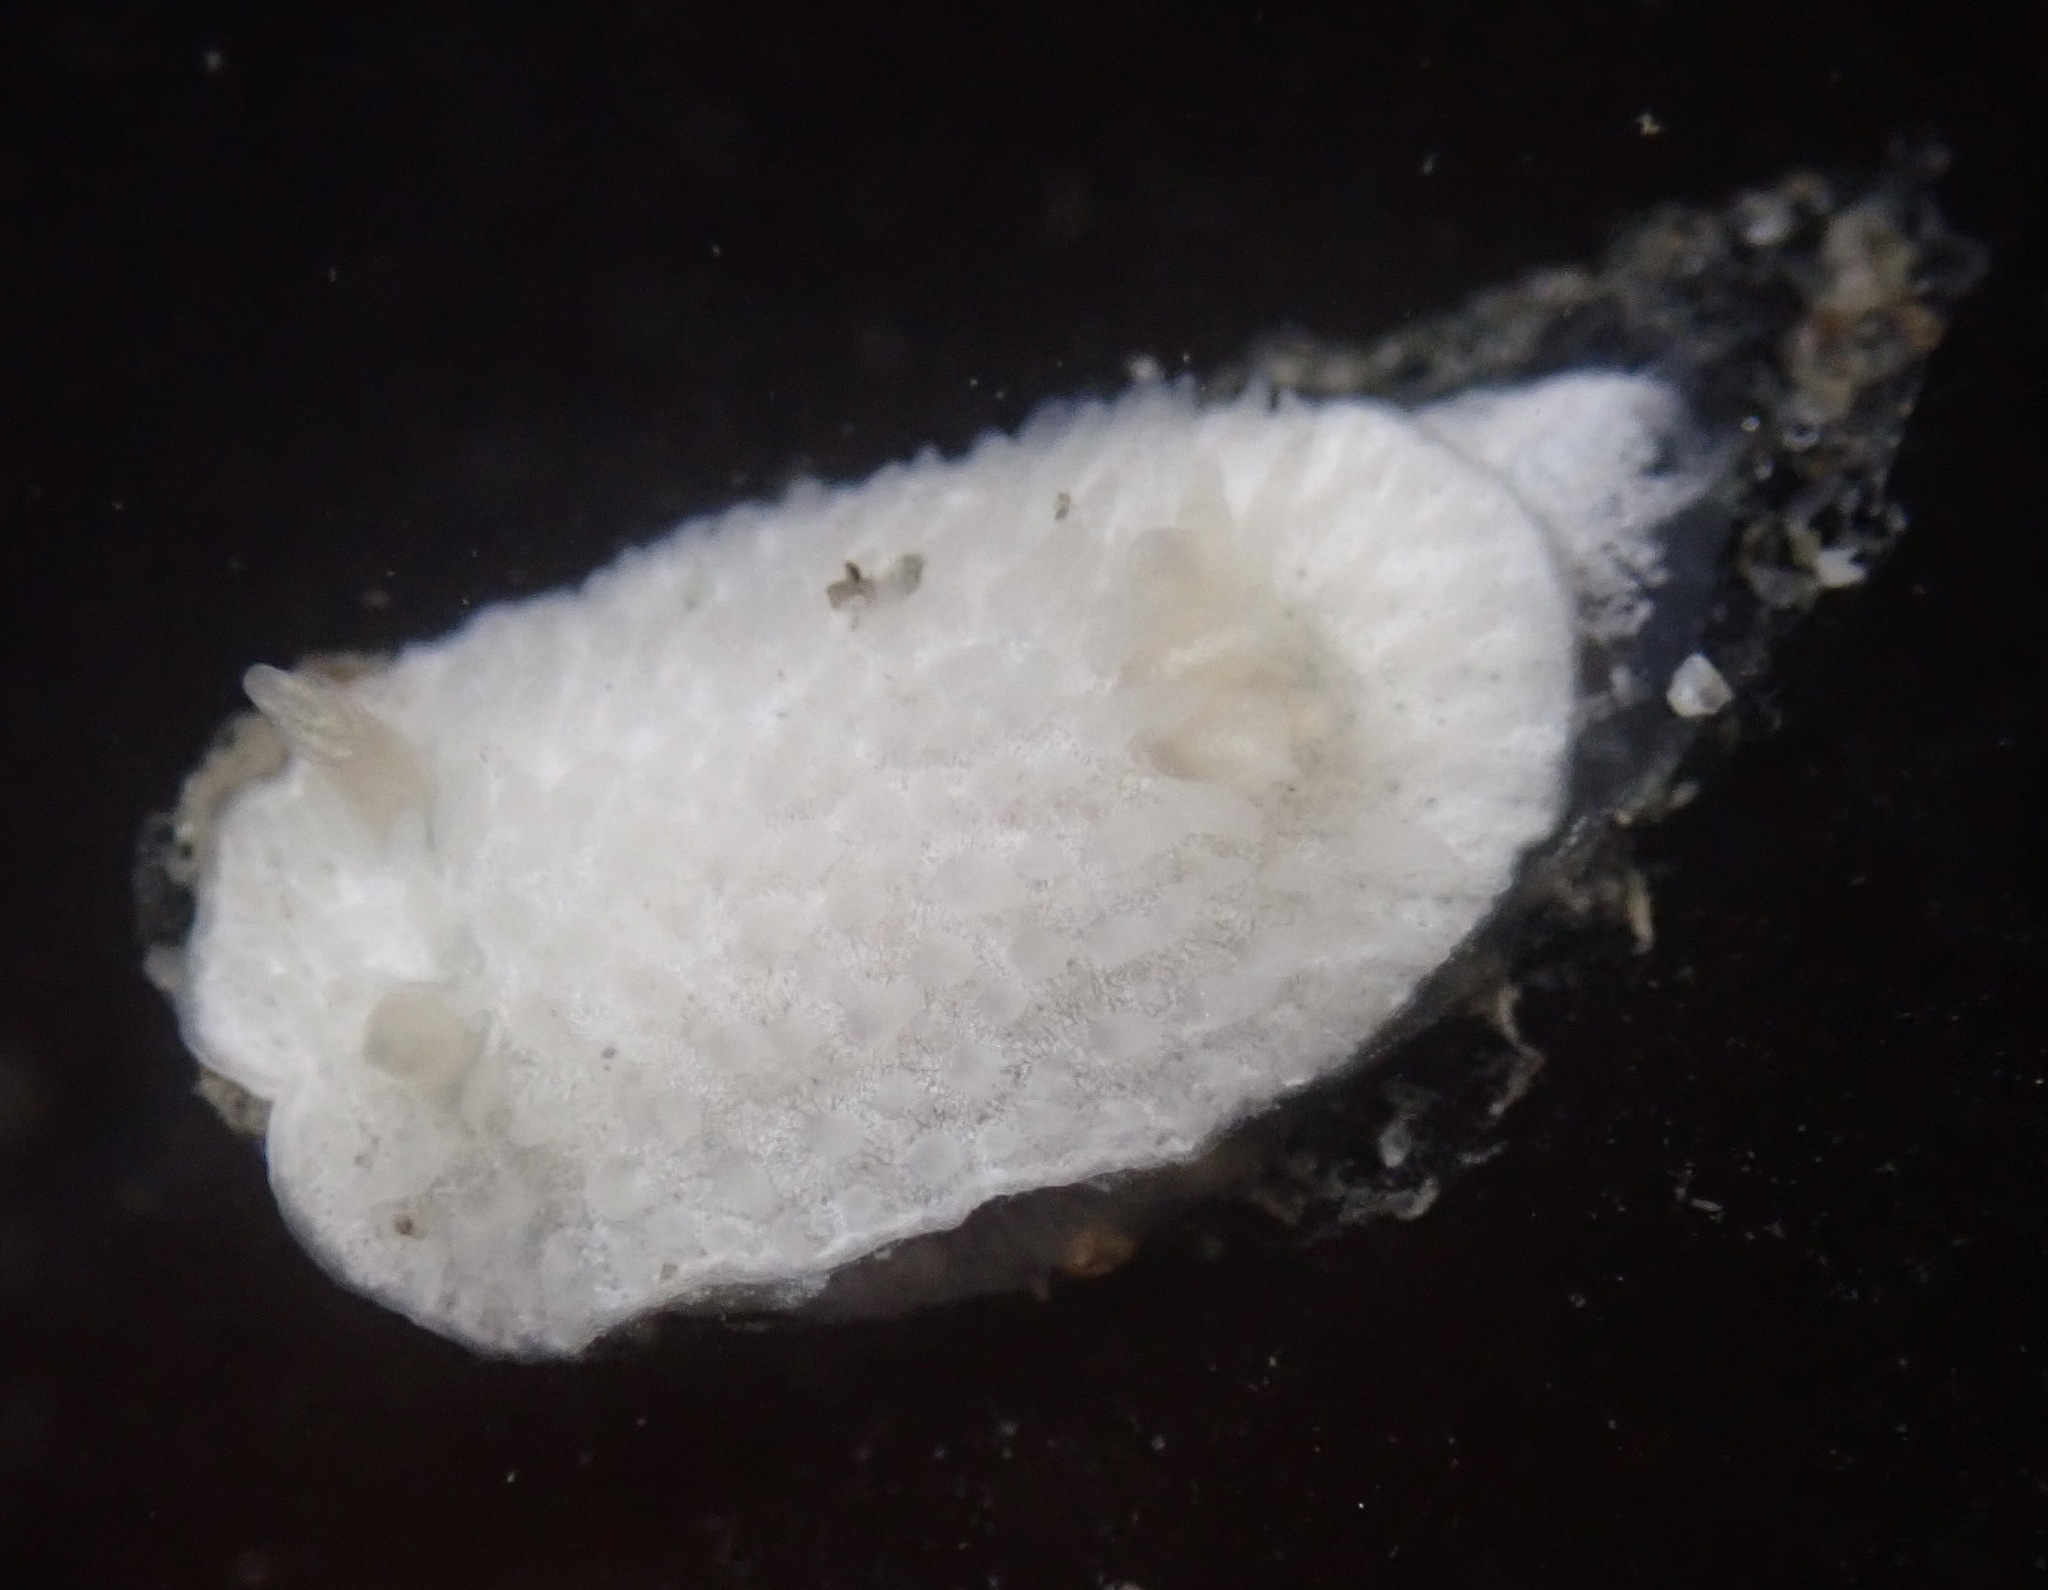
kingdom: Animalia
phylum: Mollusca
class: Gastropoda
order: Nudibranchia
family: Calycidorididae
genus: Diaphorodoris
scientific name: Diaphorodoris lirulatocauda
